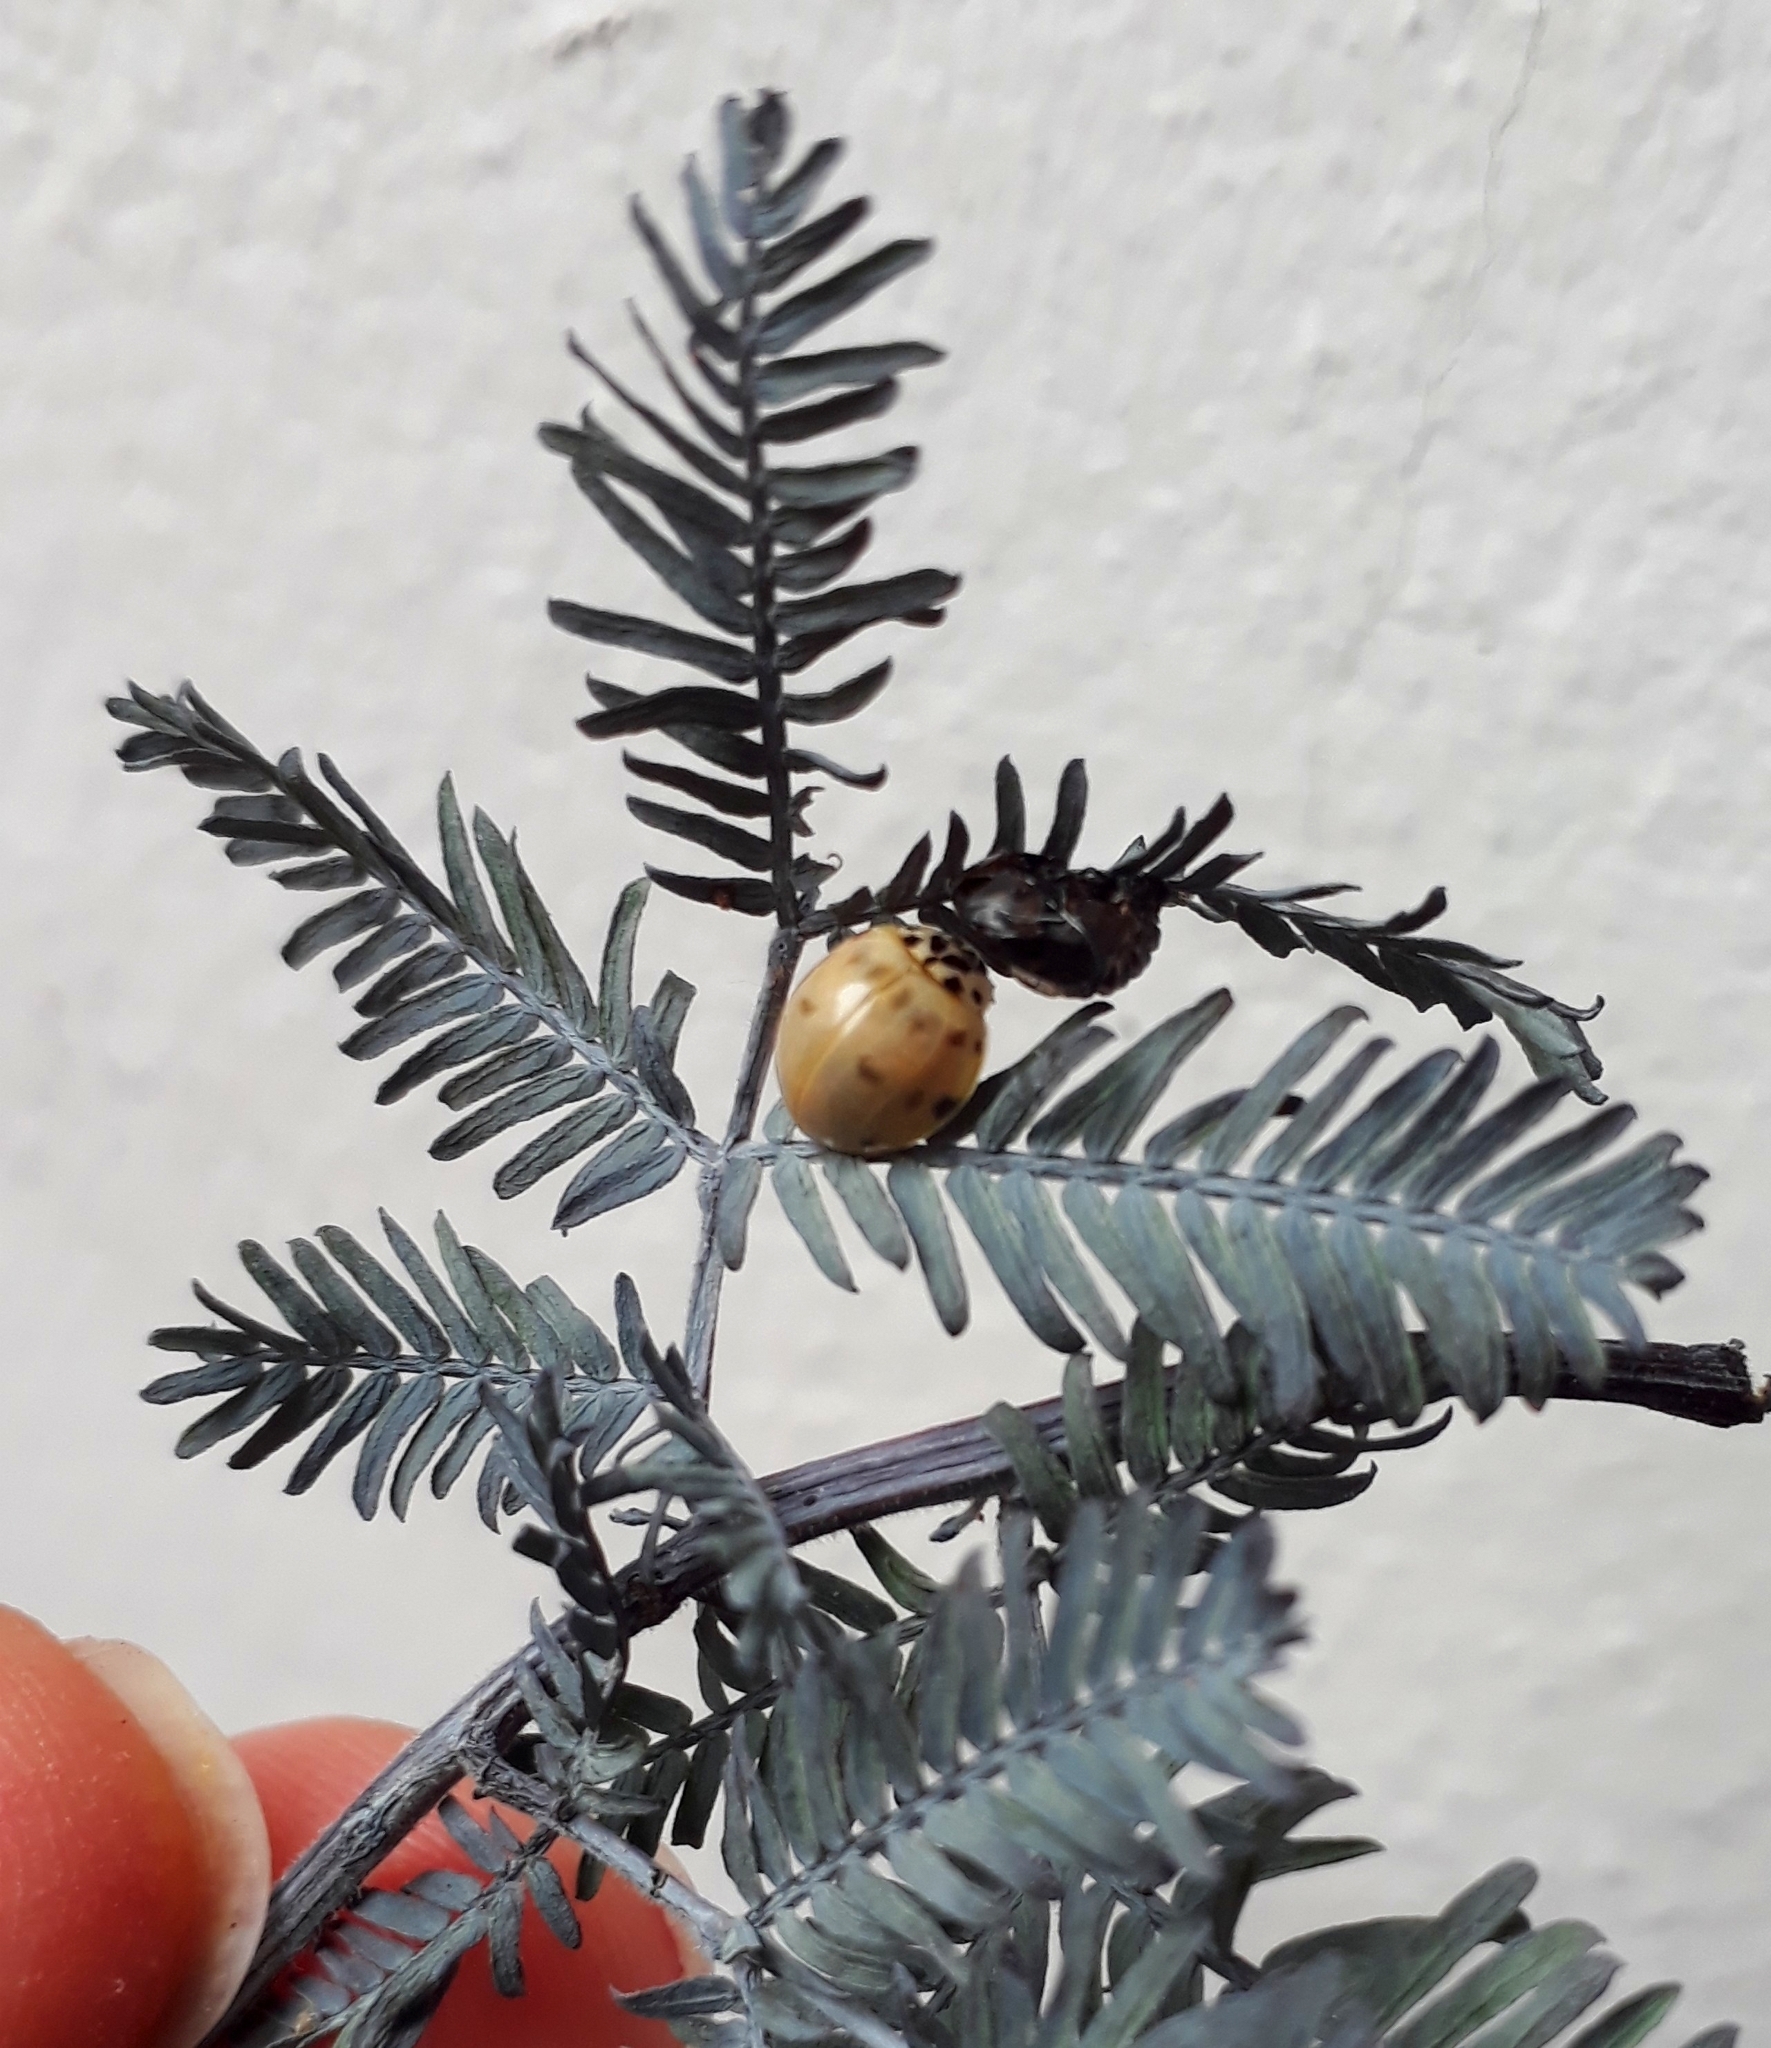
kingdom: Animalia
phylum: Arthropoda
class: Insecta
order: Coleoptera
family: Coccinellidae
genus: Olla
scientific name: Olla v-nigrum
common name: Ashy gray lady beetle
